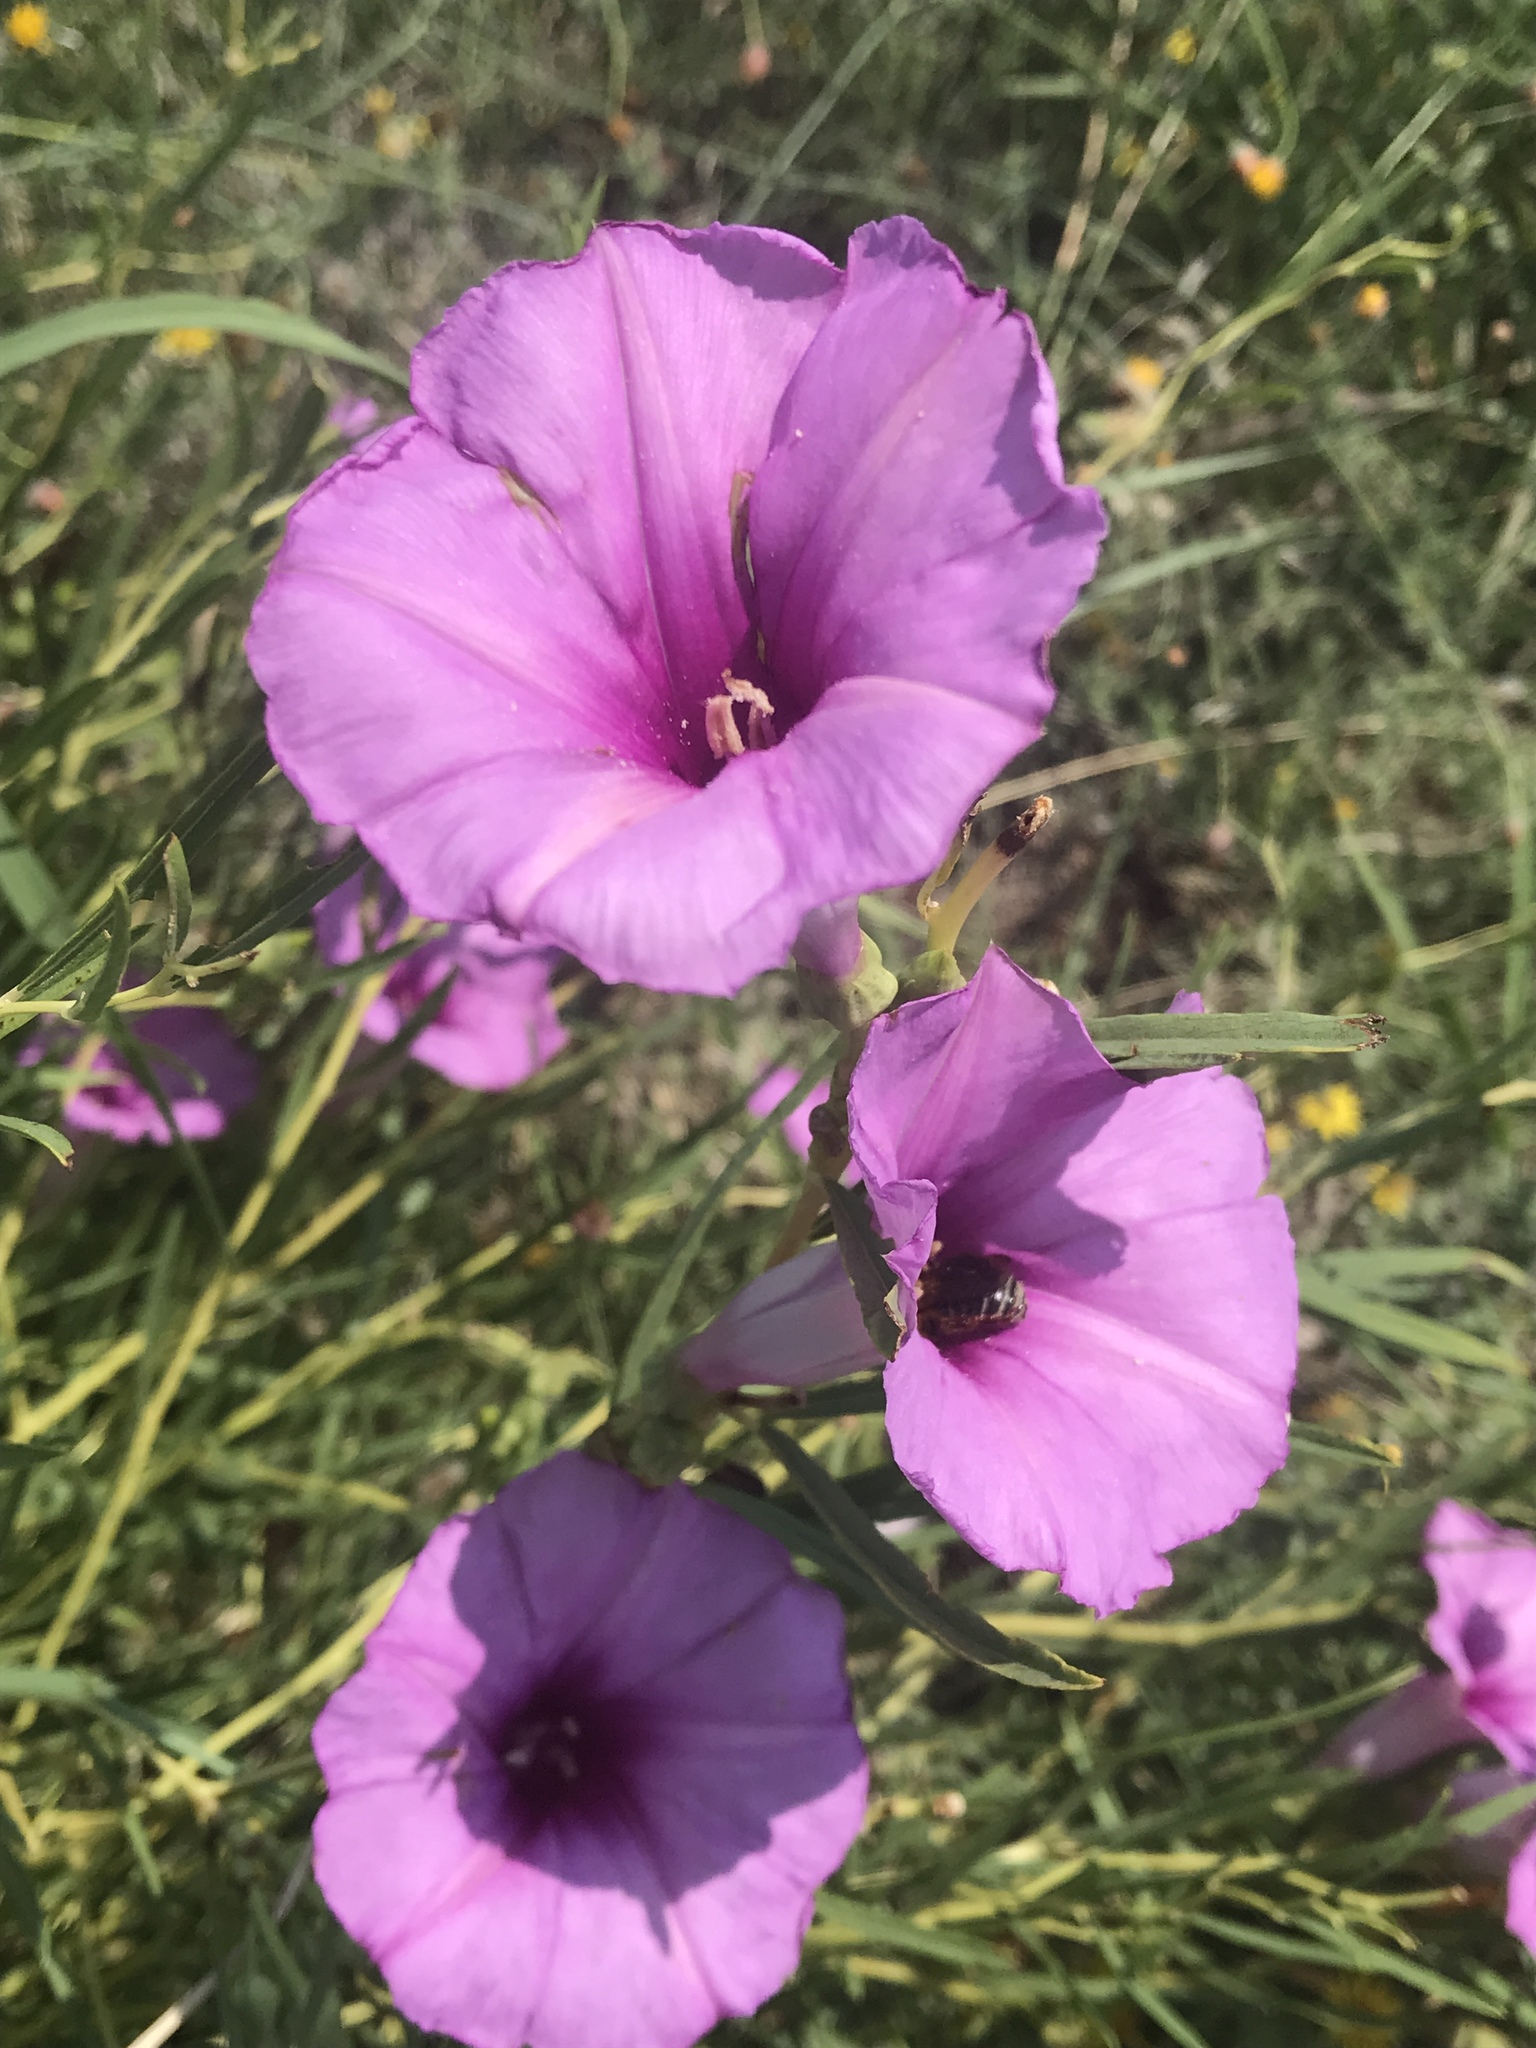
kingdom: Plantae
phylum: Tracheophyta
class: Magnoliopsida
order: Solanales
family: Convolvulaceae
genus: Ipomoea
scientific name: Ipomoea leptophylla
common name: Bush moonflower
